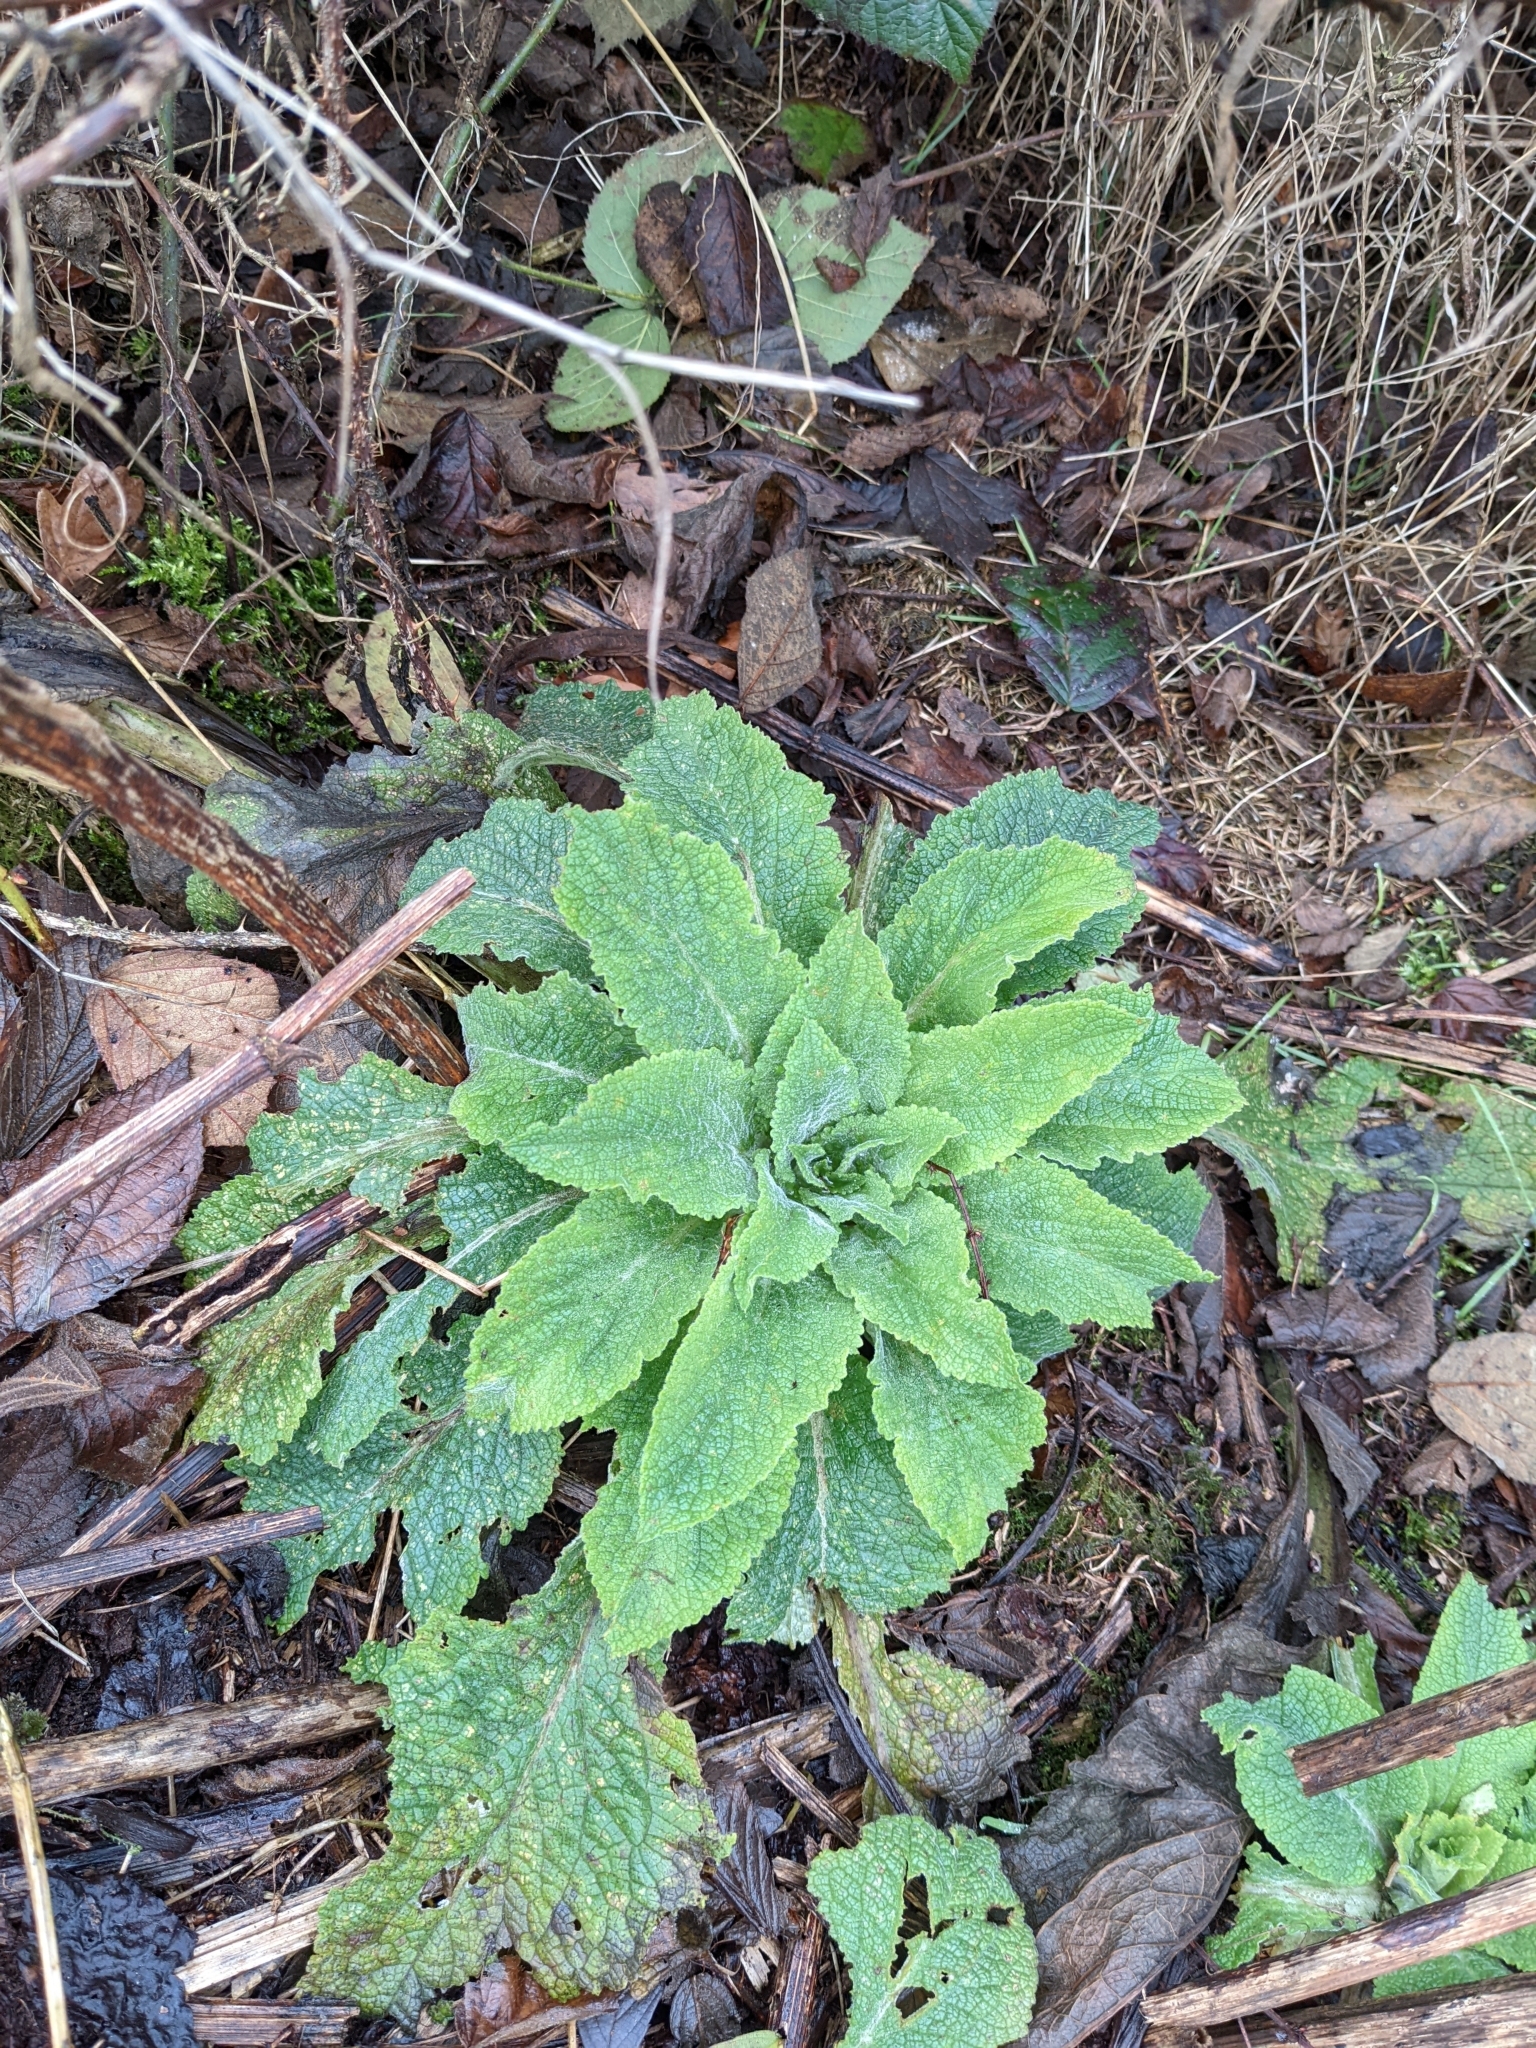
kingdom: Plantae
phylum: Tracheophyta
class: Magnoliopsida
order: Lamiales
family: Plantaginaceae
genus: Digitalis
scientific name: Digitalis purpurea
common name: Foxglove
